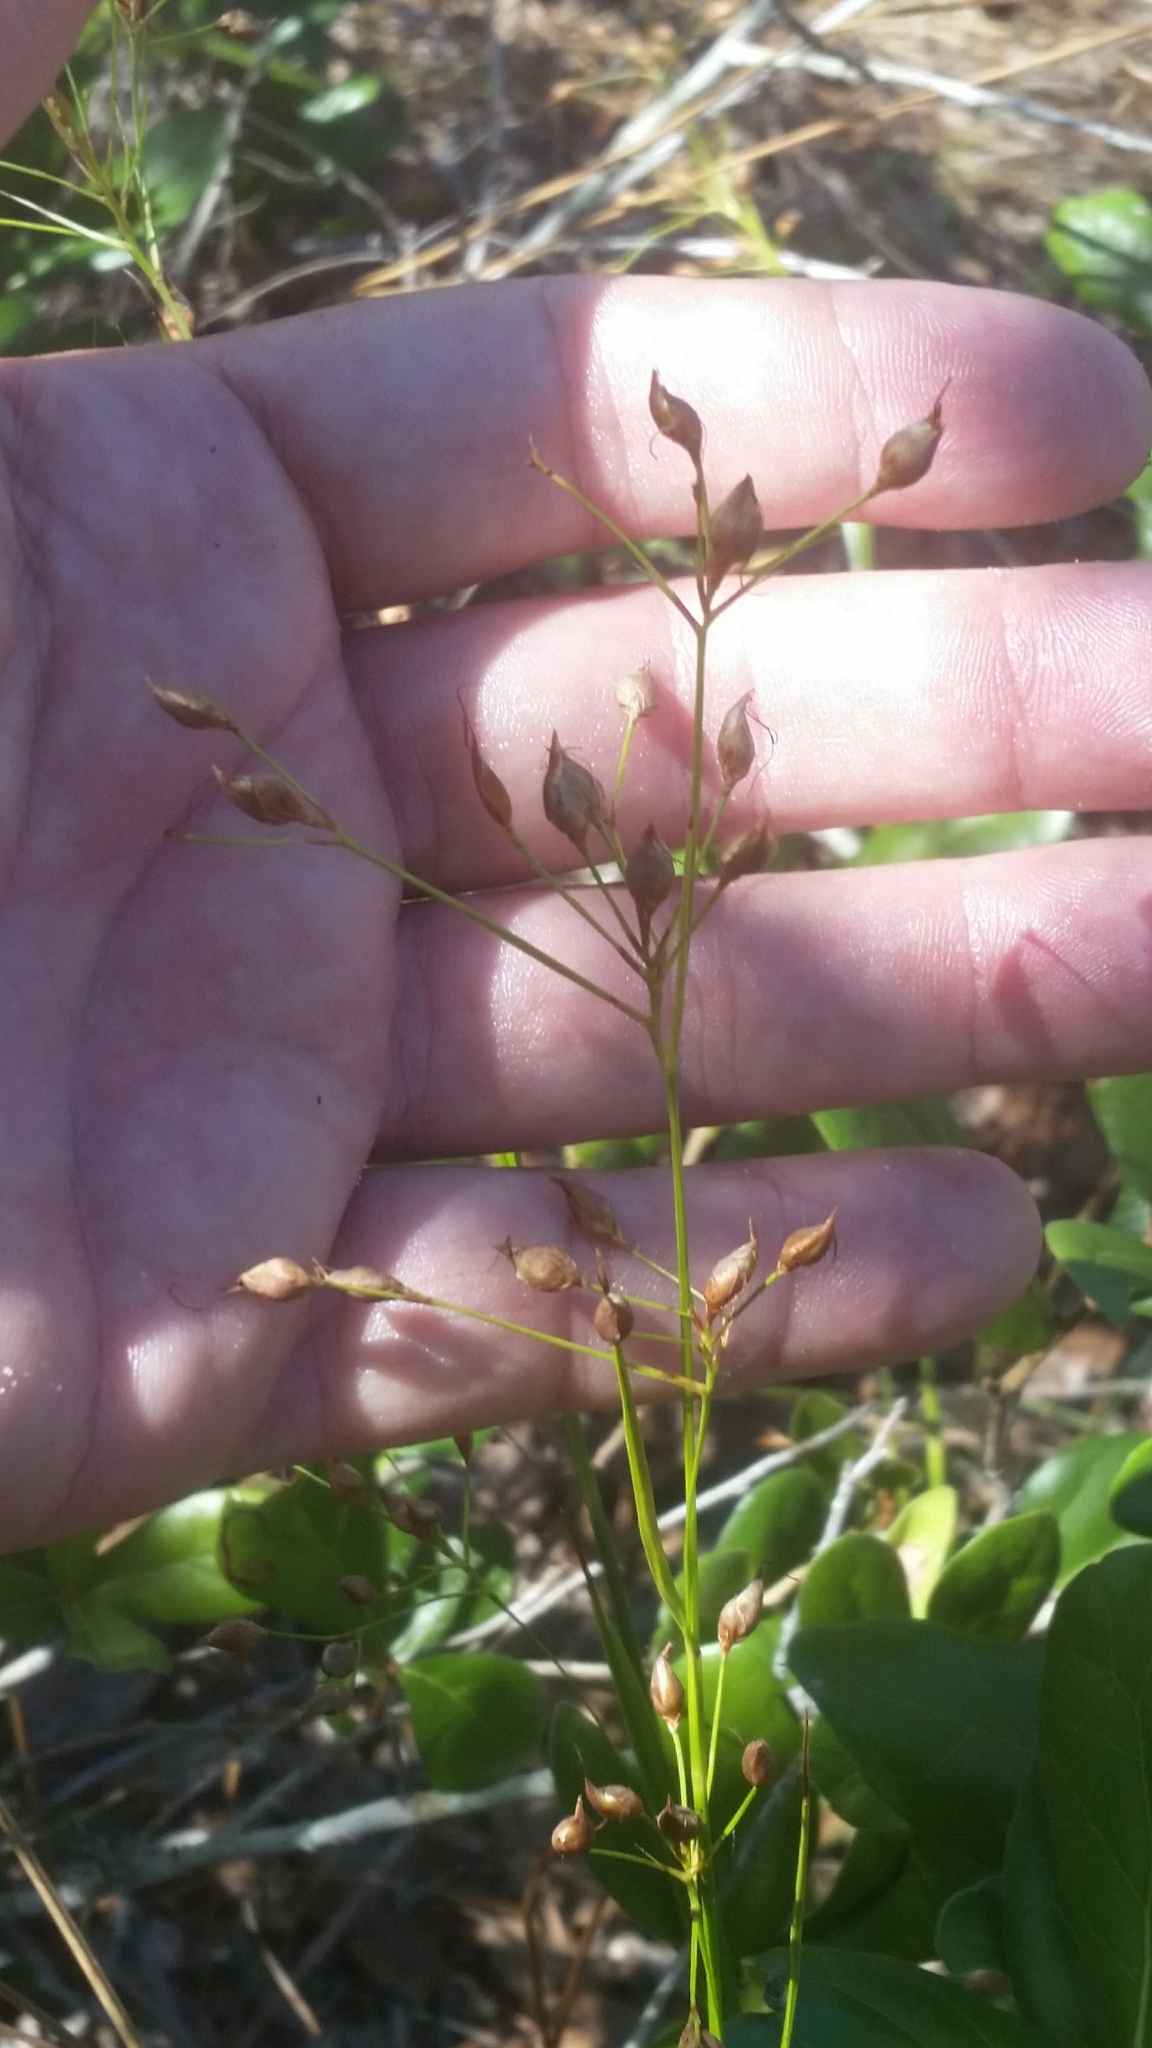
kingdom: Plantae
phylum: Tracheophyta
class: Liliopsida
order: Poales
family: Cyperaceae
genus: Rhynchospora
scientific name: Rhynchospora megalocarpa
